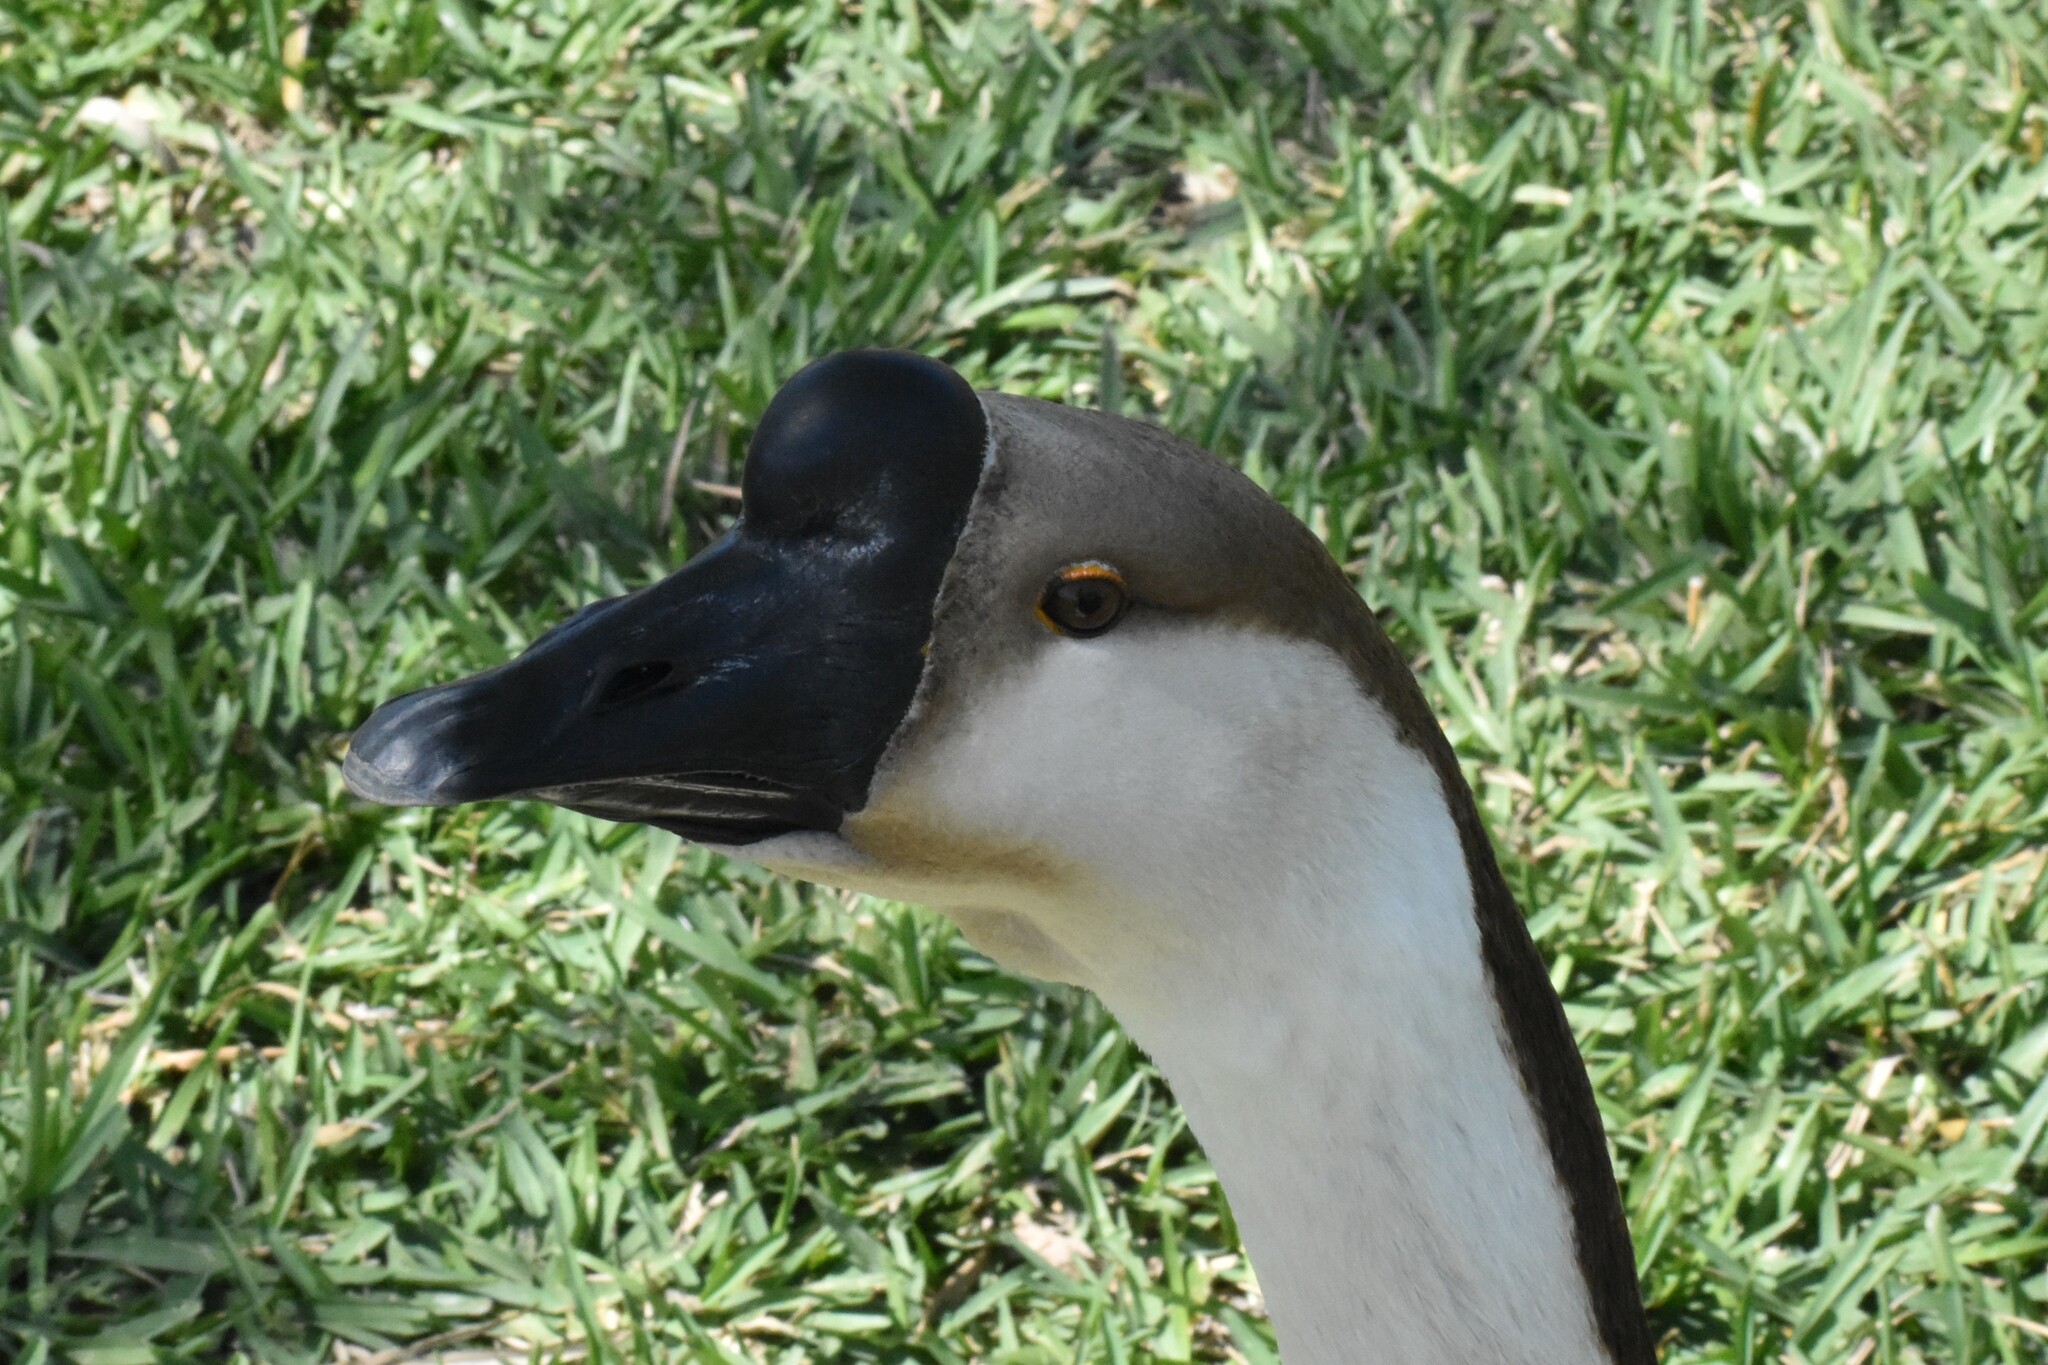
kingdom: Animalia
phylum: Chordata
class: Aves
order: Anseriformes
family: Anatidae
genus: Anser
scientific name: Anser cygnoides
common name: Swan goose
